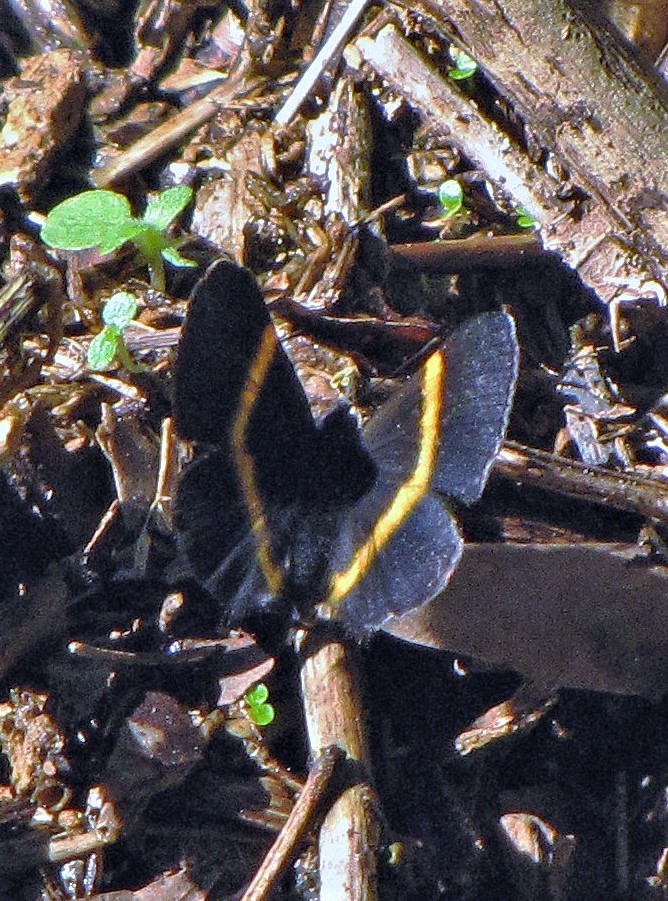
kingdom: Animalia
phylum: Arthropoda
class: Insecta
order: Lepidoptera
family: Riodinidae
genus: Parcella
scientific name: Parcella amarynthina
